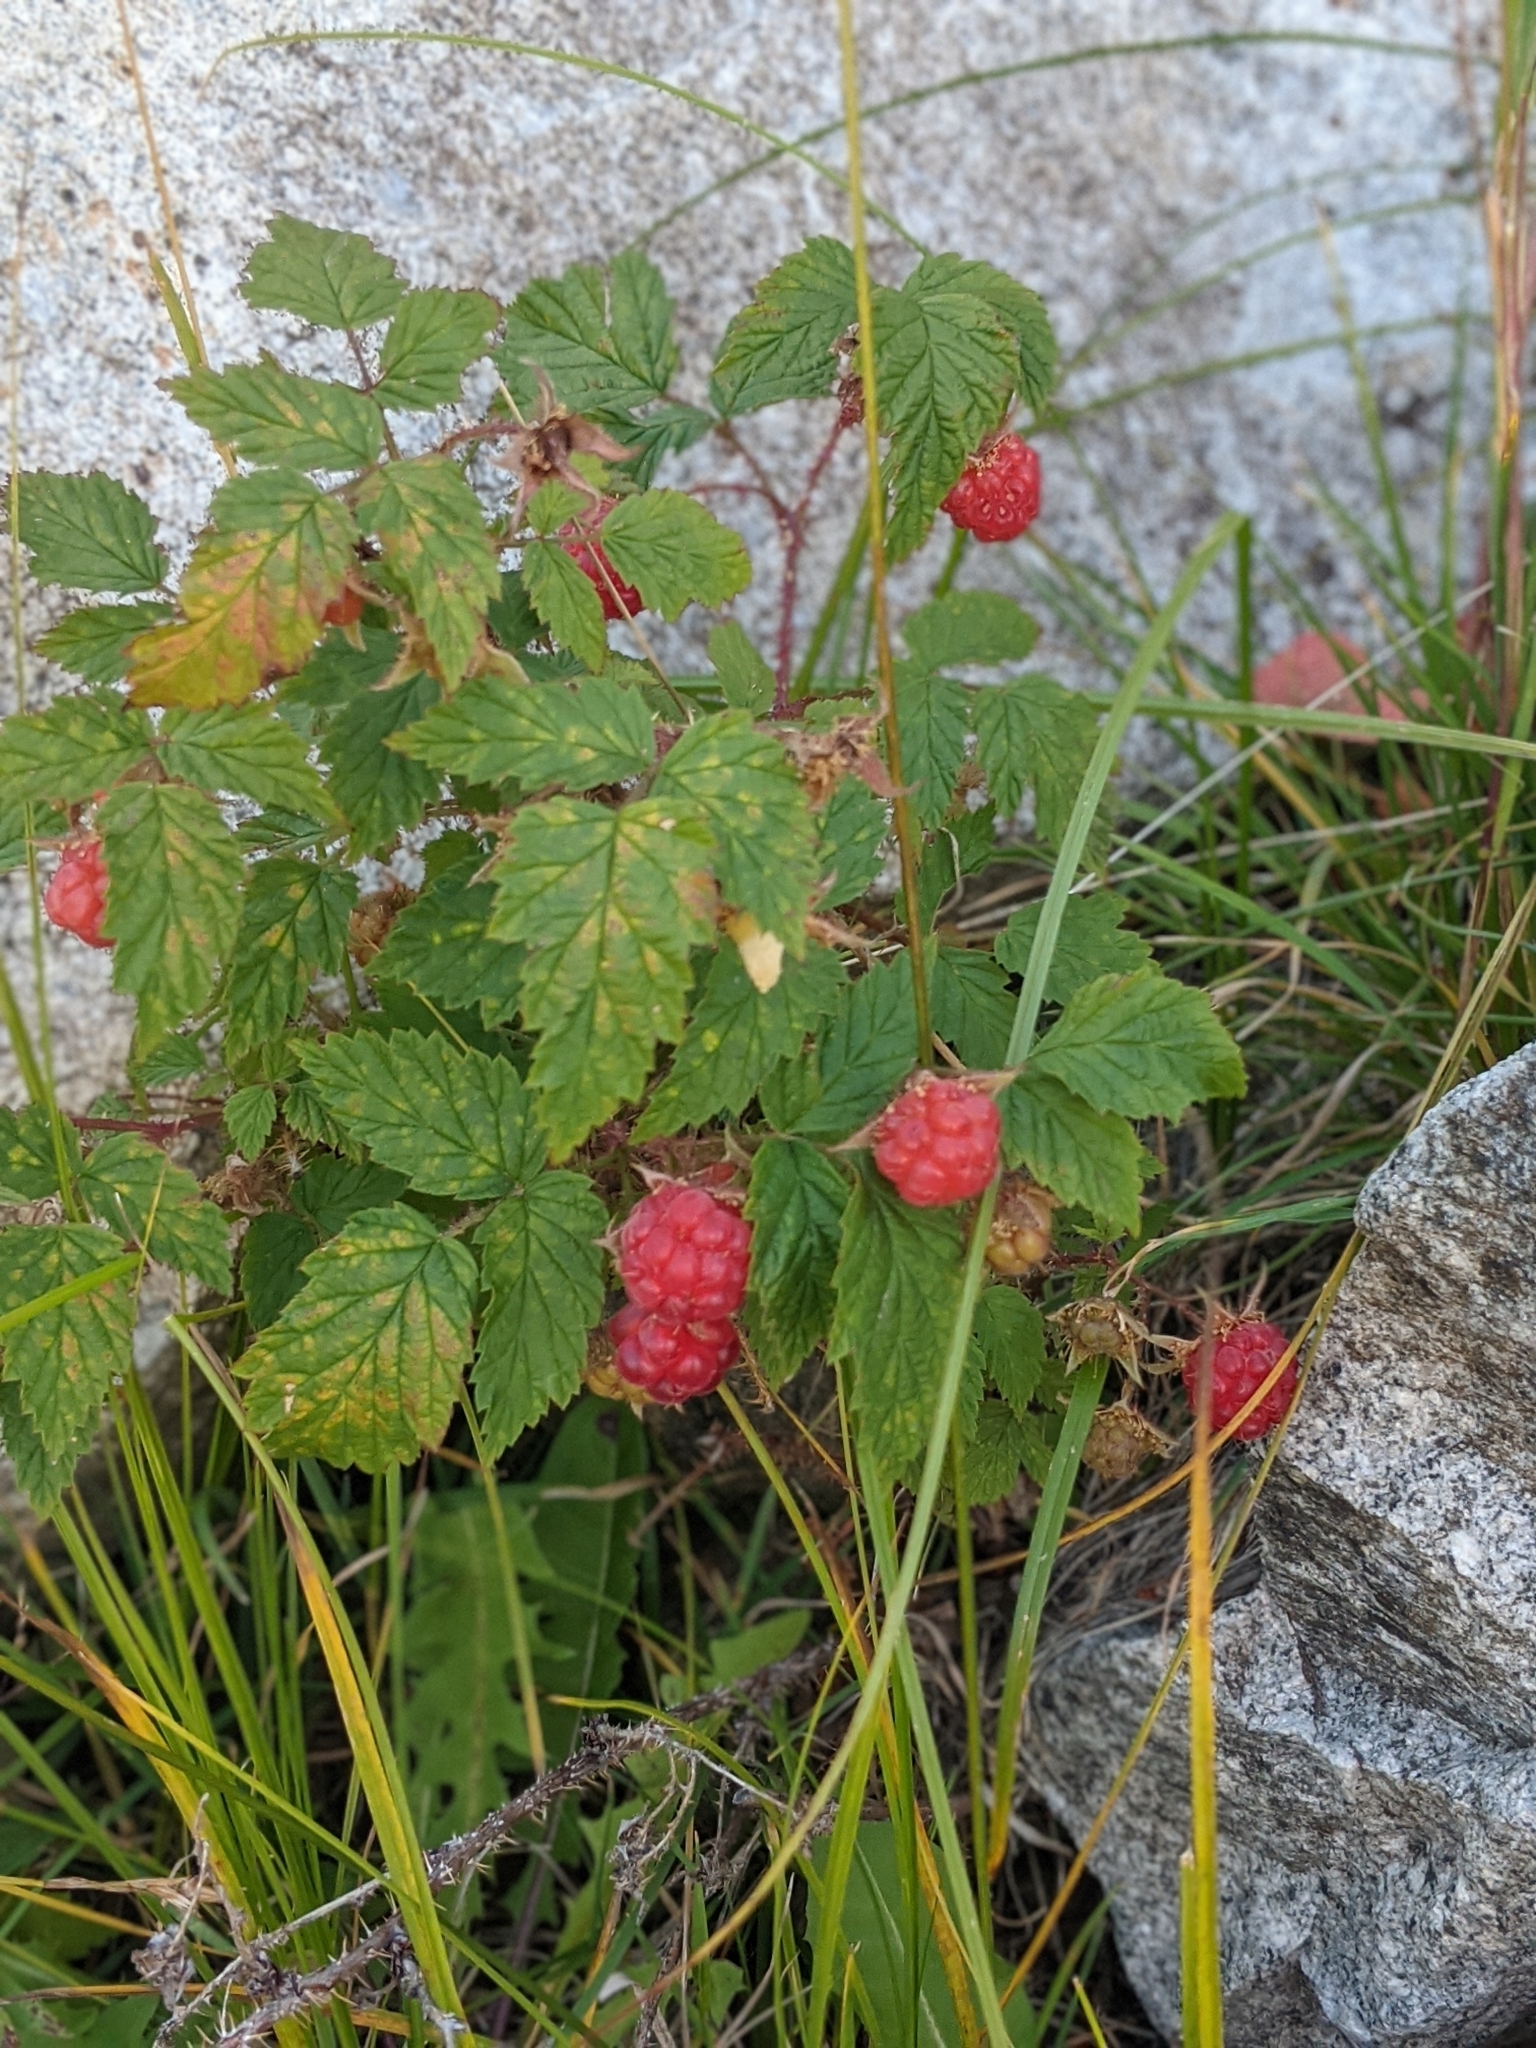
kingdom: Plantae
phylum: Tracheophyta
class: Magnoliopsida
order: Rosales
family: Rosaceae
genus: Rubus
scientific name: Rubus idaeus
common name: Raspberry
